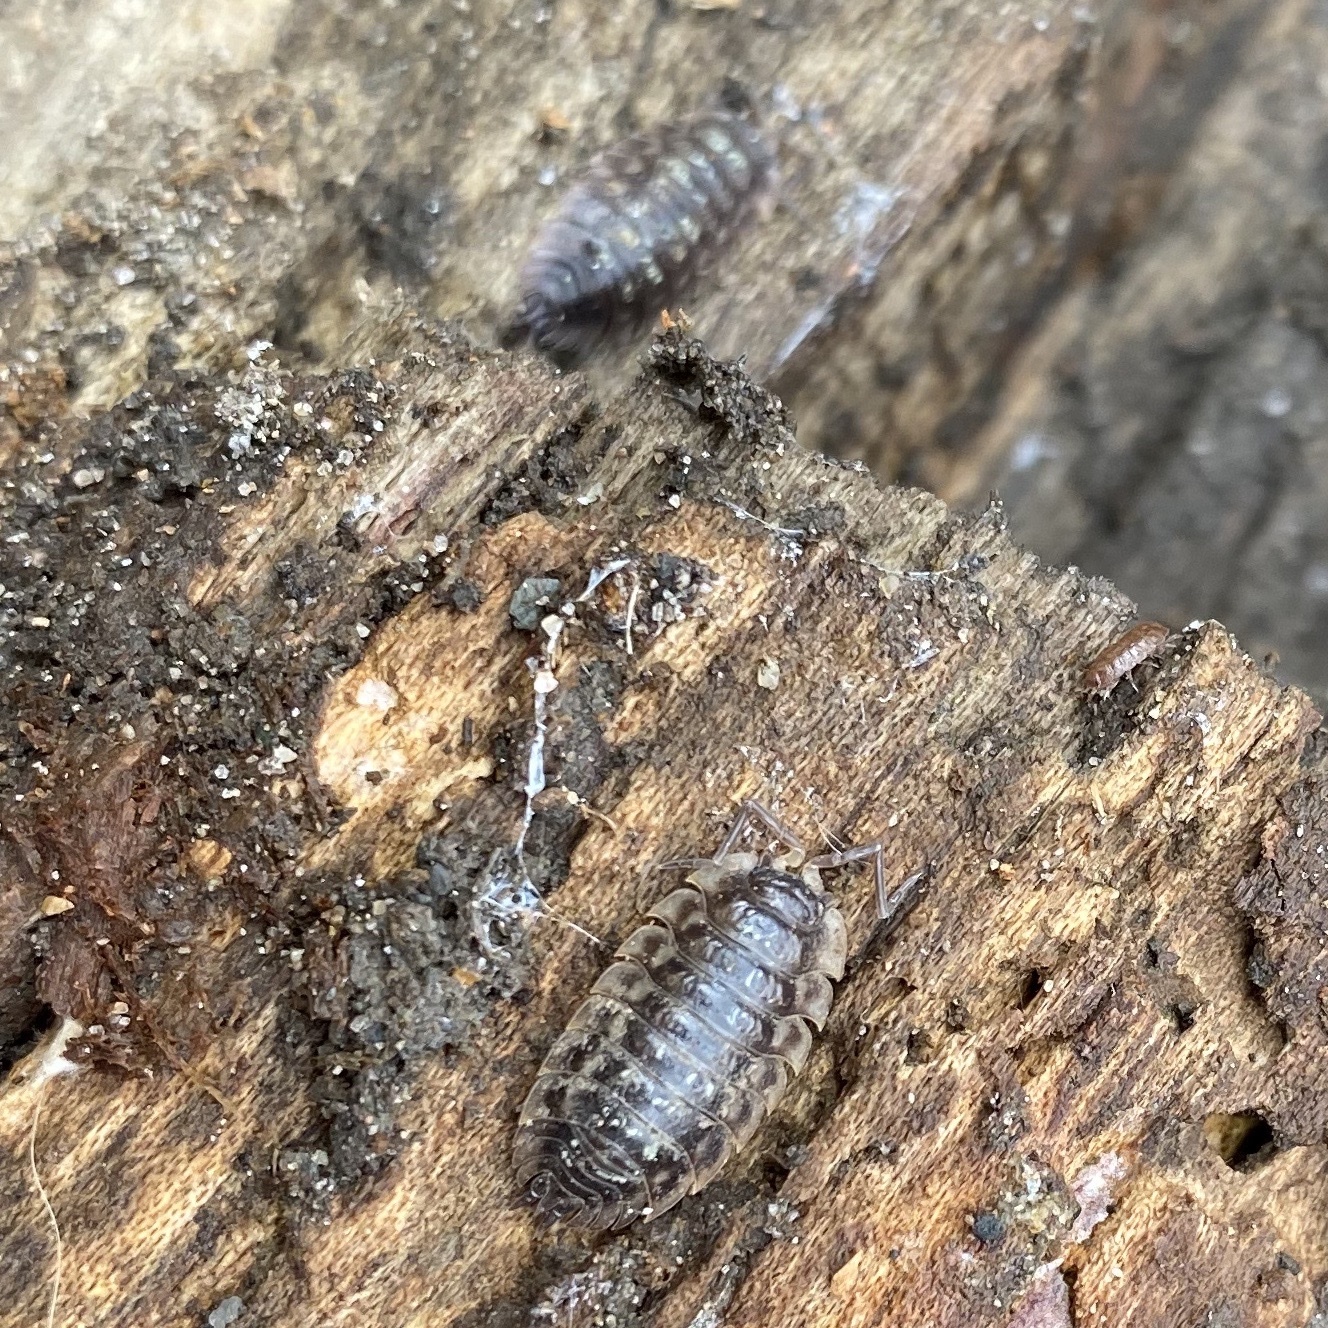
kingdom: Animalia
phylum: Arthropoda
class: Malacostraca
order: Isopoda
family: Oniscidae
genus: Oniscus
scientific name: Oniscus asellus
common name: Common shiny woodlouse
